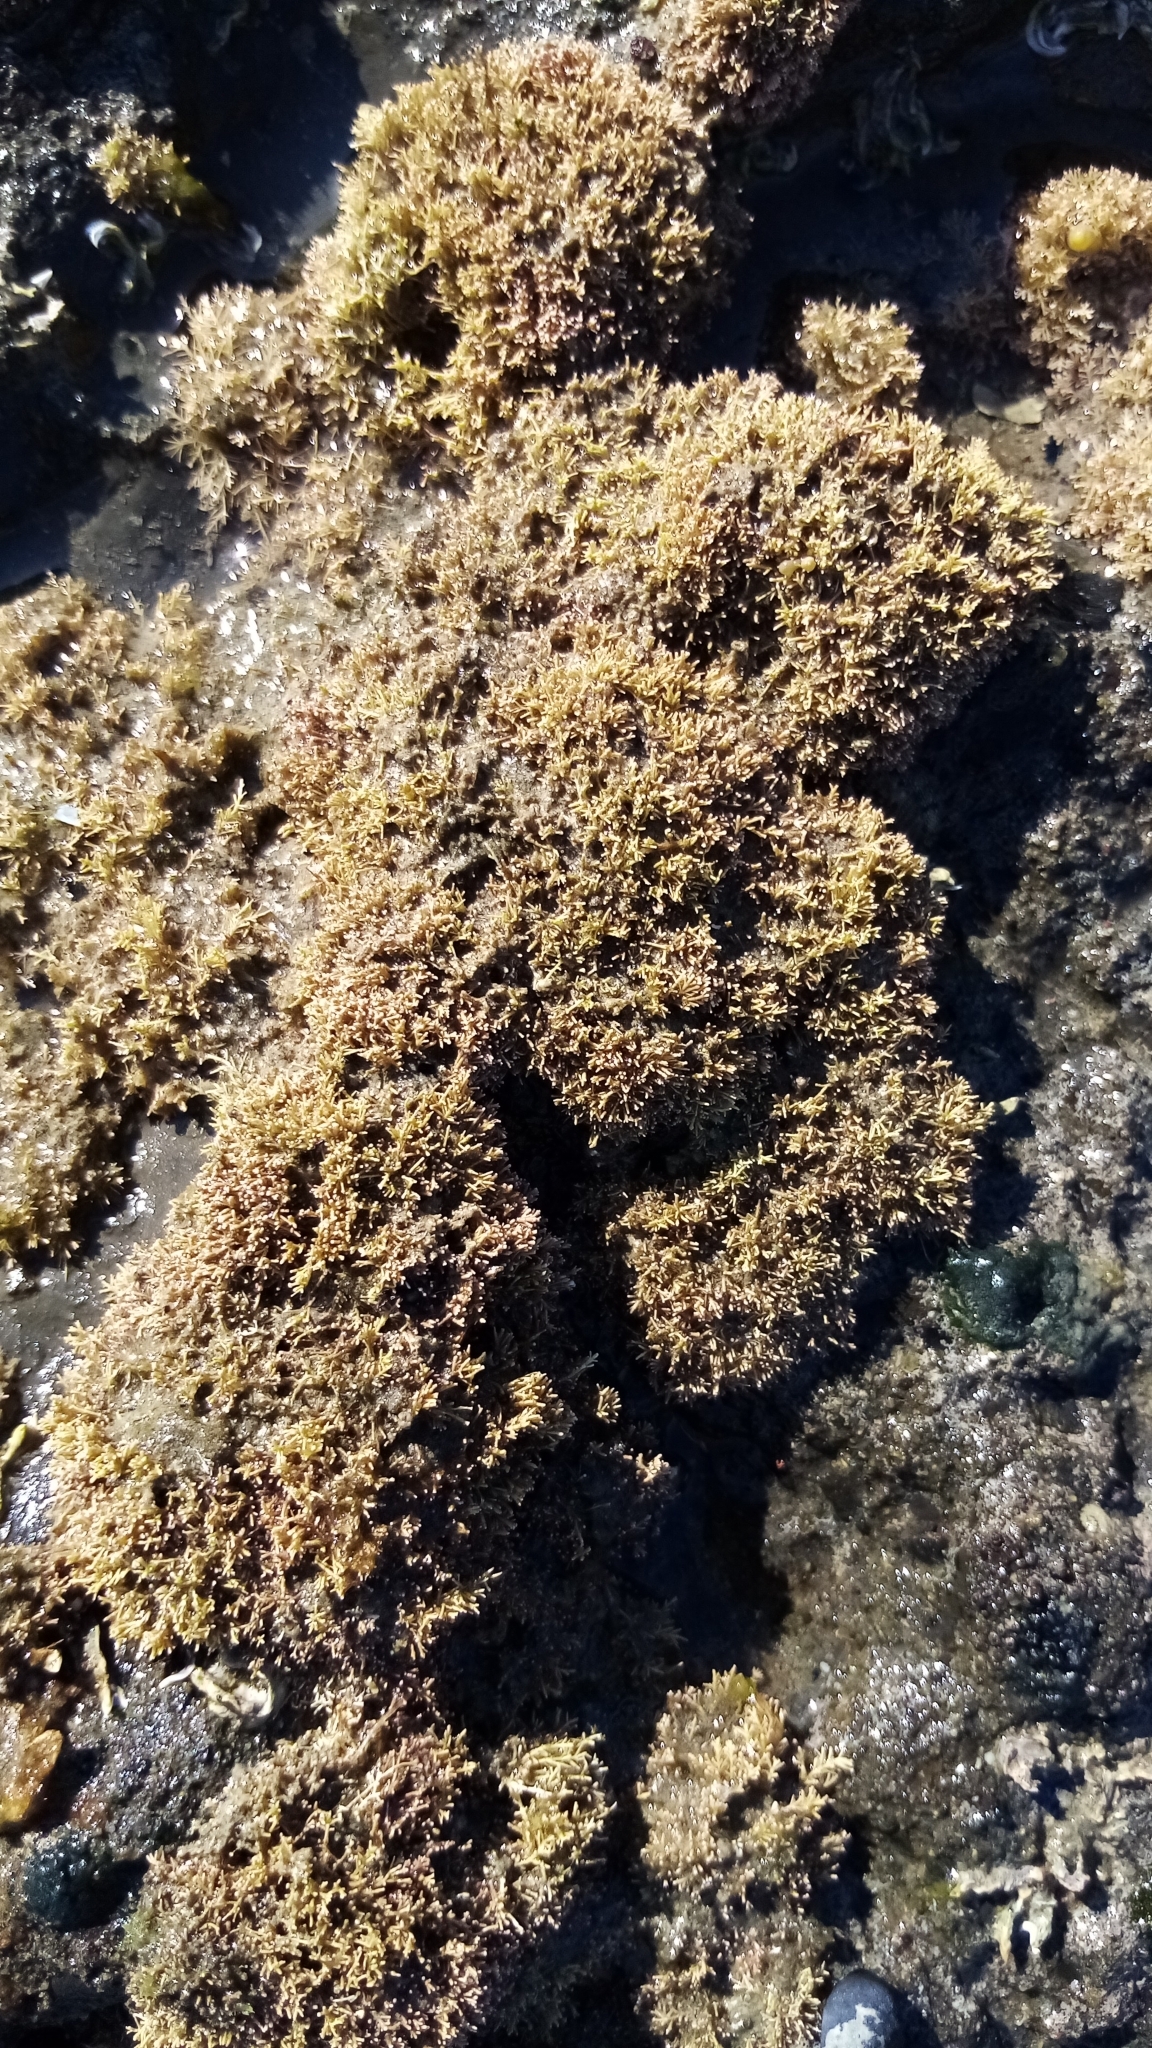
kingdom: Plantae
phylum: Rhodophyta
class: Florideophyceae
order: Corallinales
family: Corallinaceae
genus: Corallina
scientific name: Corallina officinalis
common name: Coral weed
